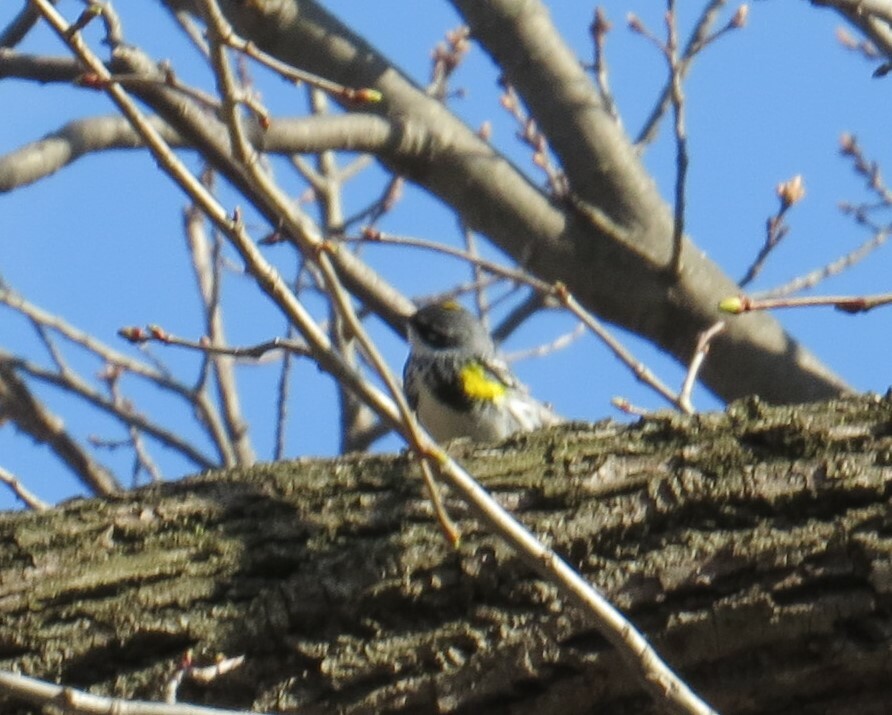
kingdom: Animalia
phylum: Chordata
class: Aves
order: Passeriformes
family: Parulidae
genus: Setophaga
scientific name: Setophaga coronata
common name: Myrtle warbler
